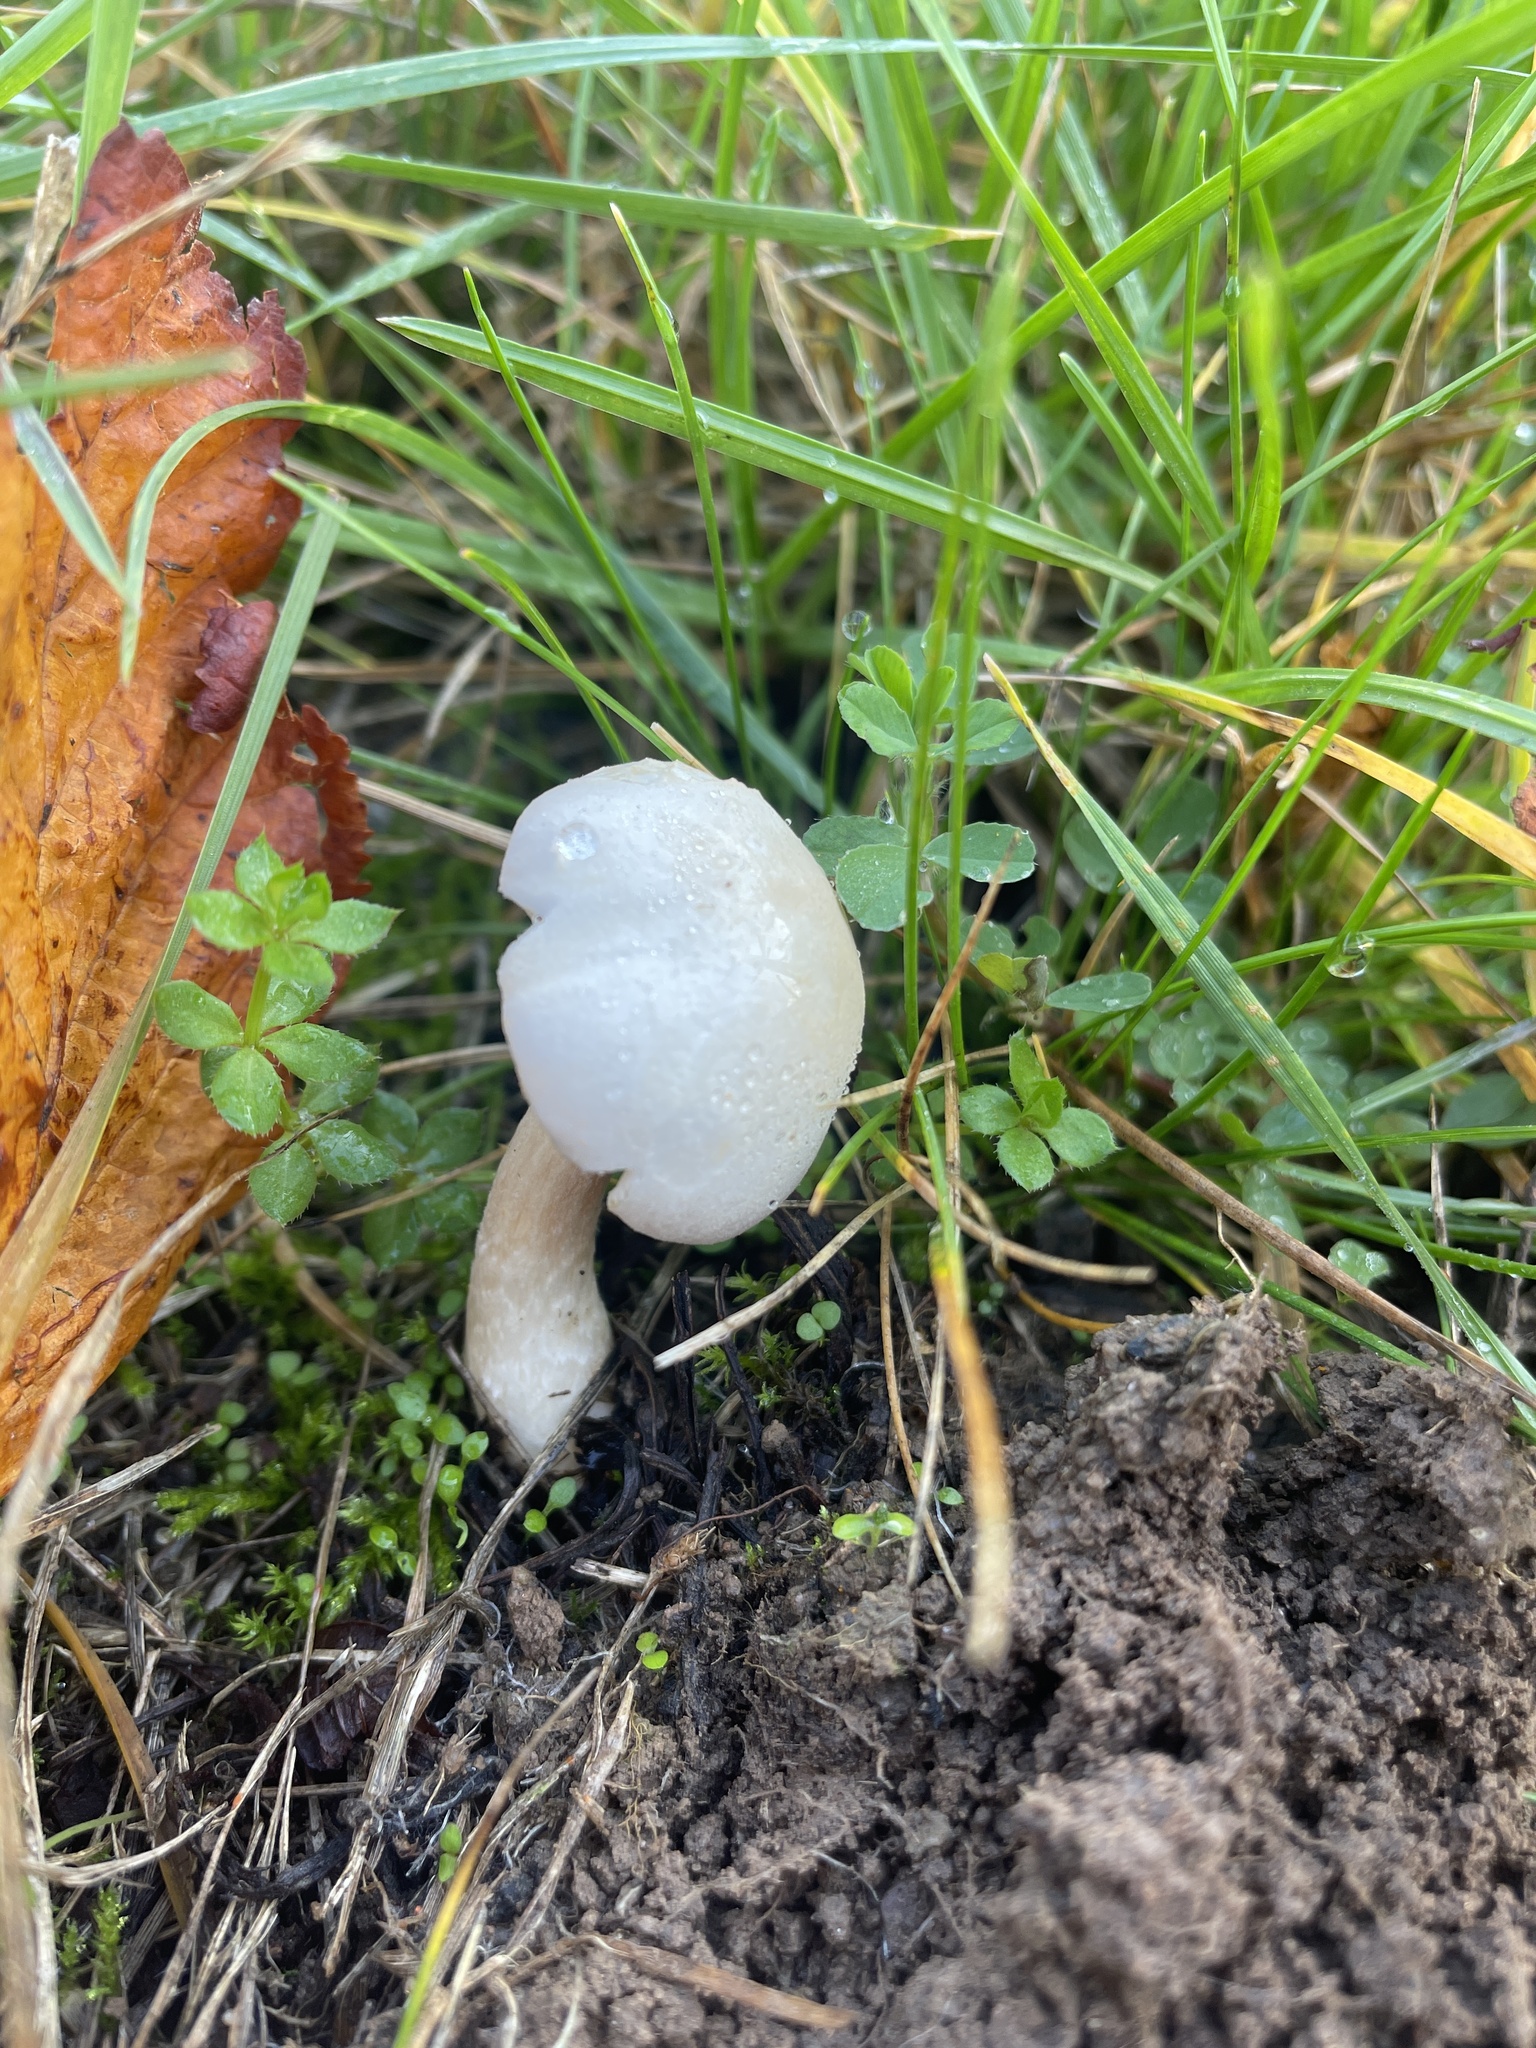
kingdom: Fungi
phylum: Basidiomycota
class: Agaricomycetes
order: Agaricales
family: Agaricaceae
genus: Leucoagaricus
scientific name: Leucoagaricus leucothites
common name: White dapperling
